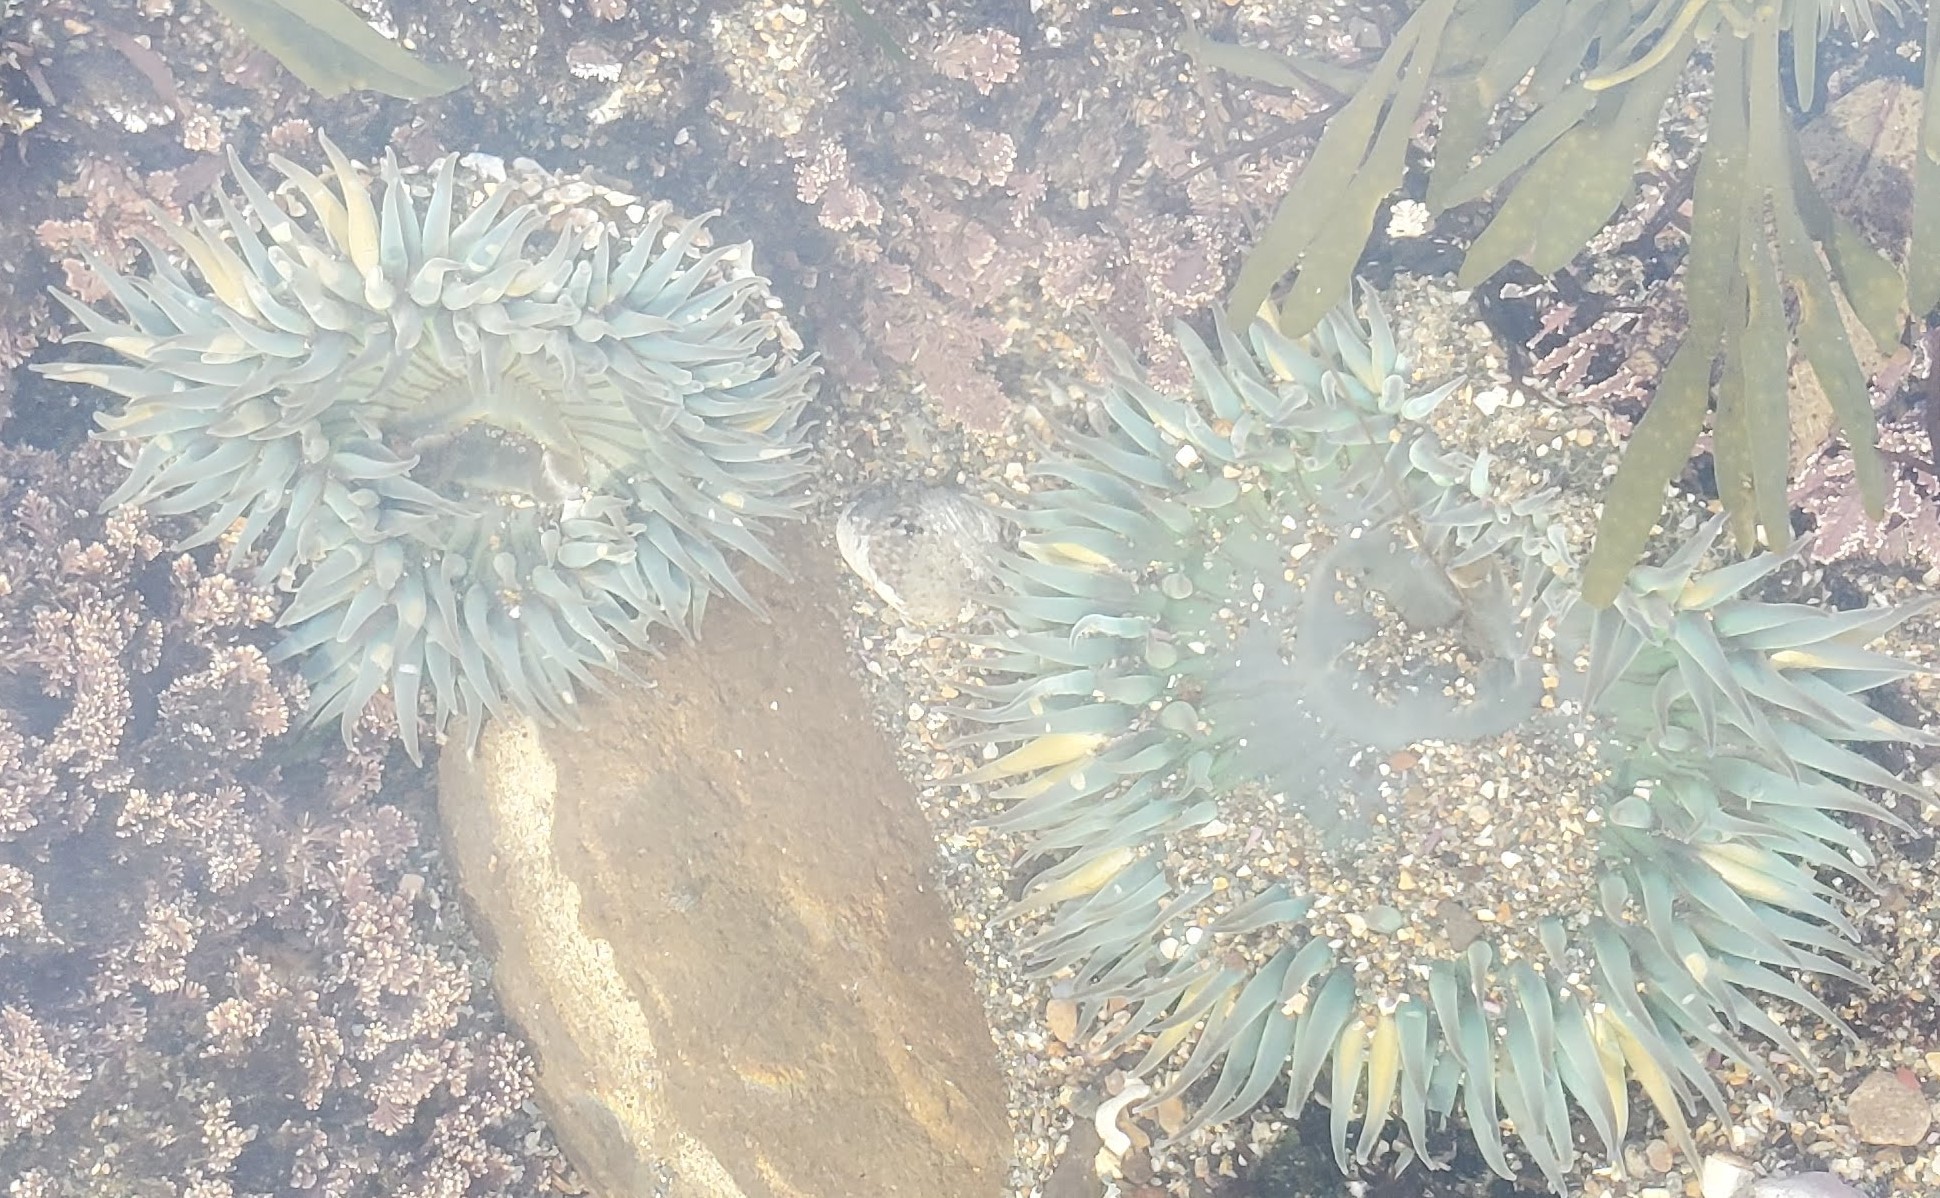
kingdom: Animalia
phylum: Cnidaria
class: Anthozoa
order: Actiniaria
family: Actiniidae
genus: Anthopleura
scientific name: Anthopleura sola
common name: Sun anemone
